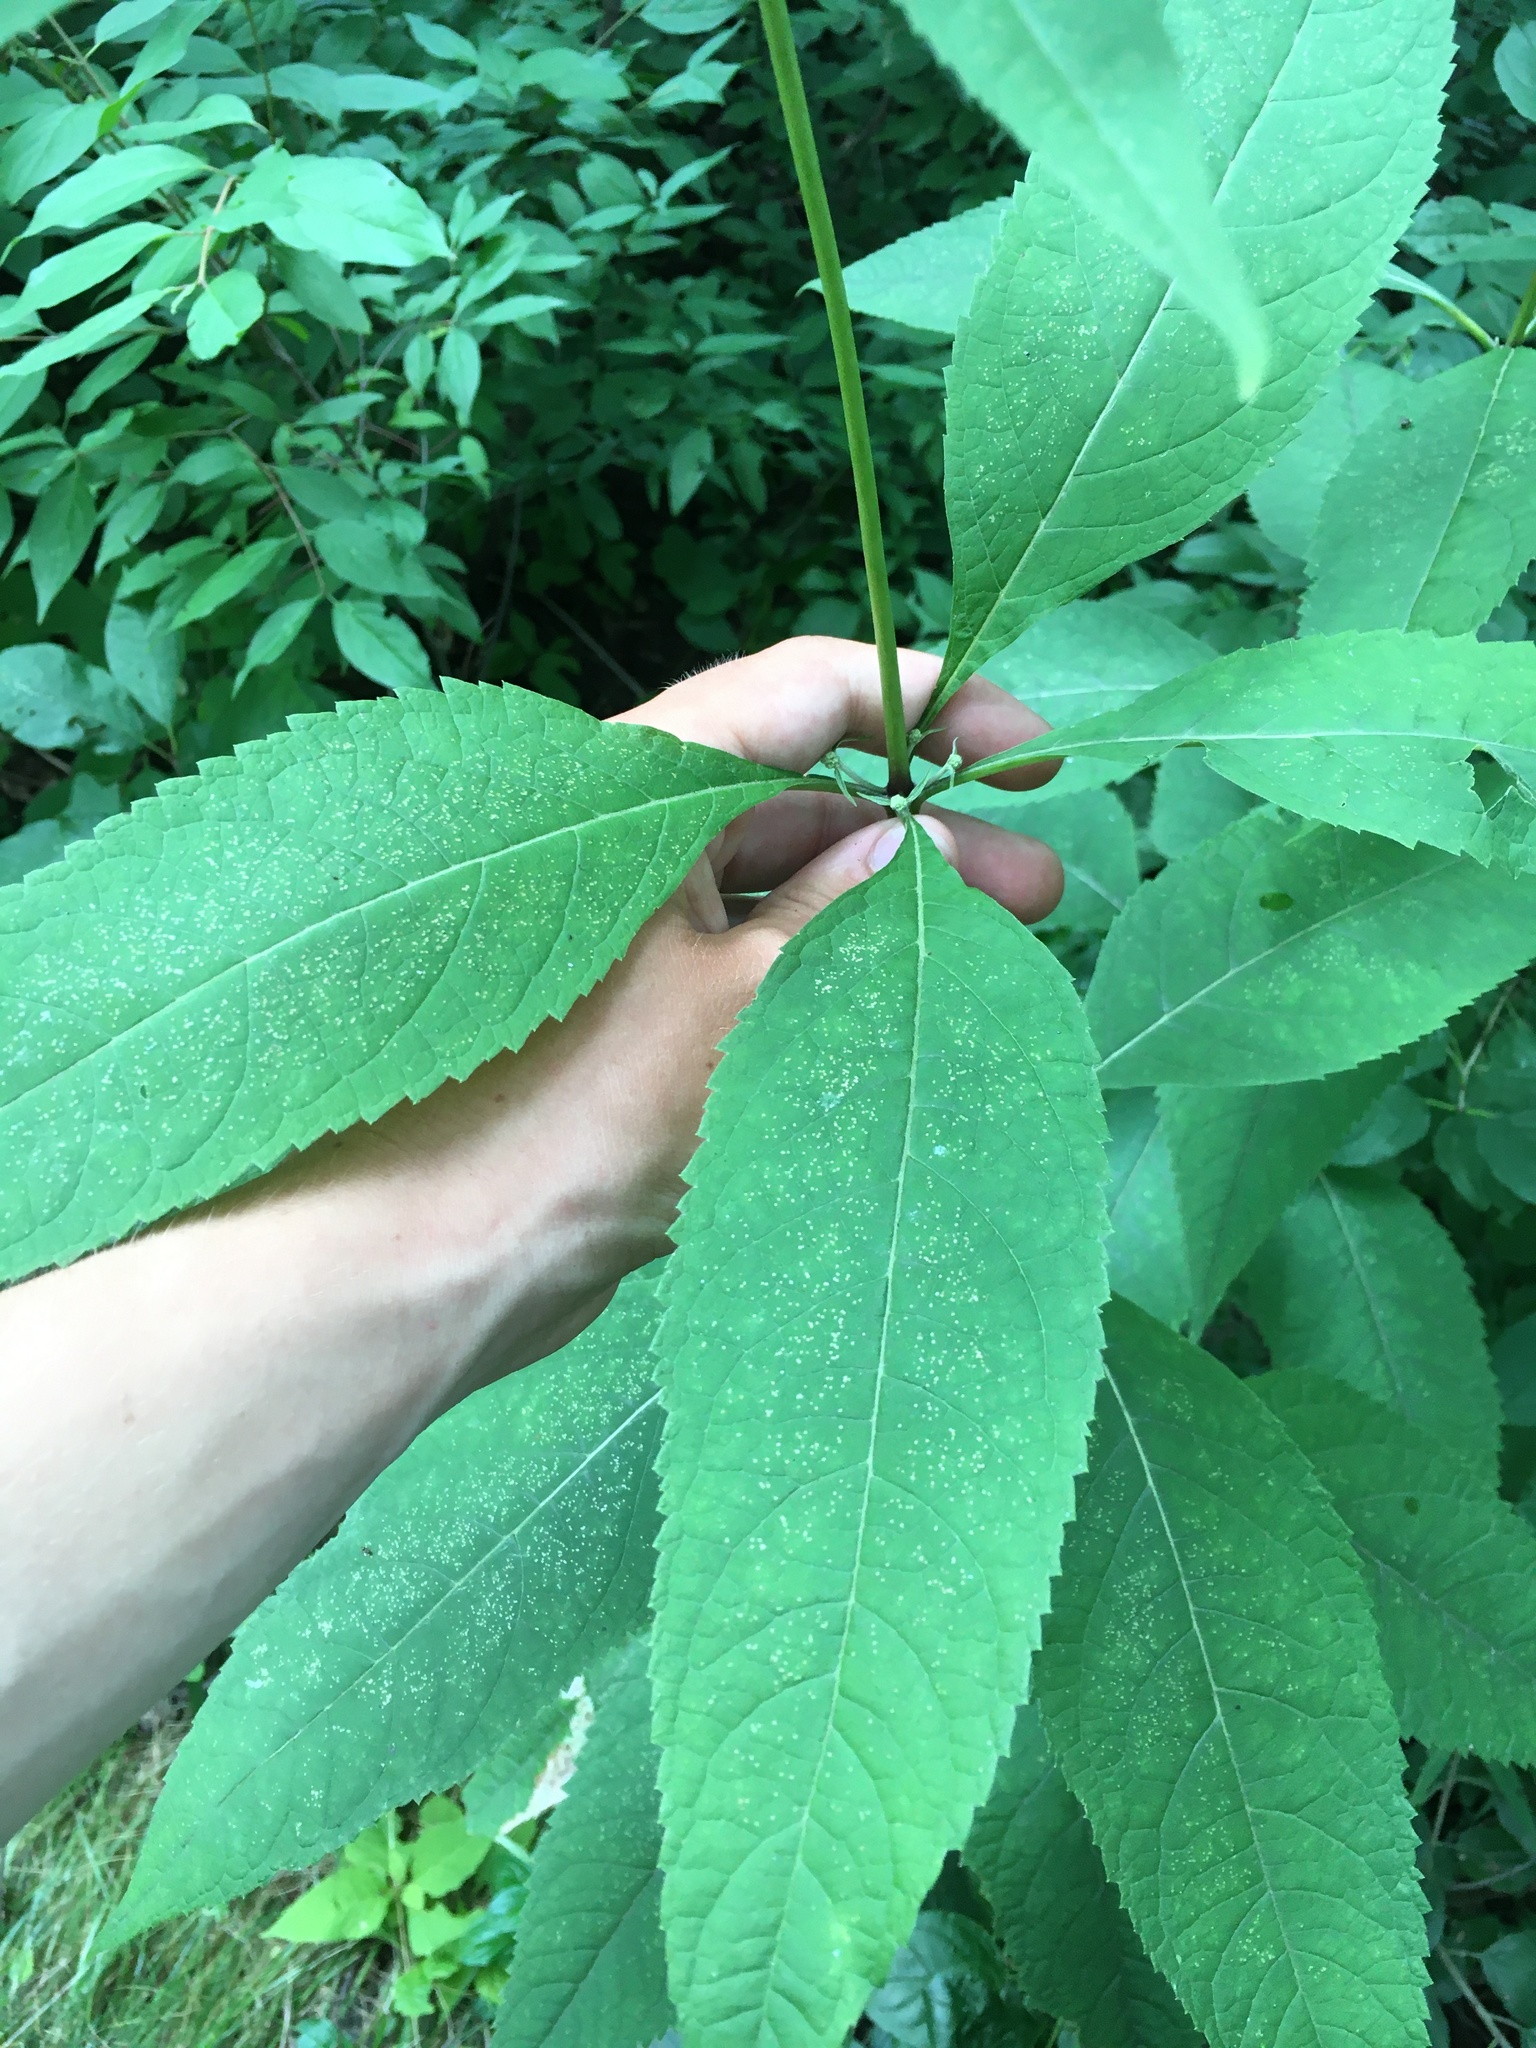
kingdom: Plantae
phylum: Tracheophyta
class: Magnoliopsida
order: Asterales
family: Asteraceae
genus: Eutrochium
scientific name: Eutrochium purpureum
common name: Gravelroot
